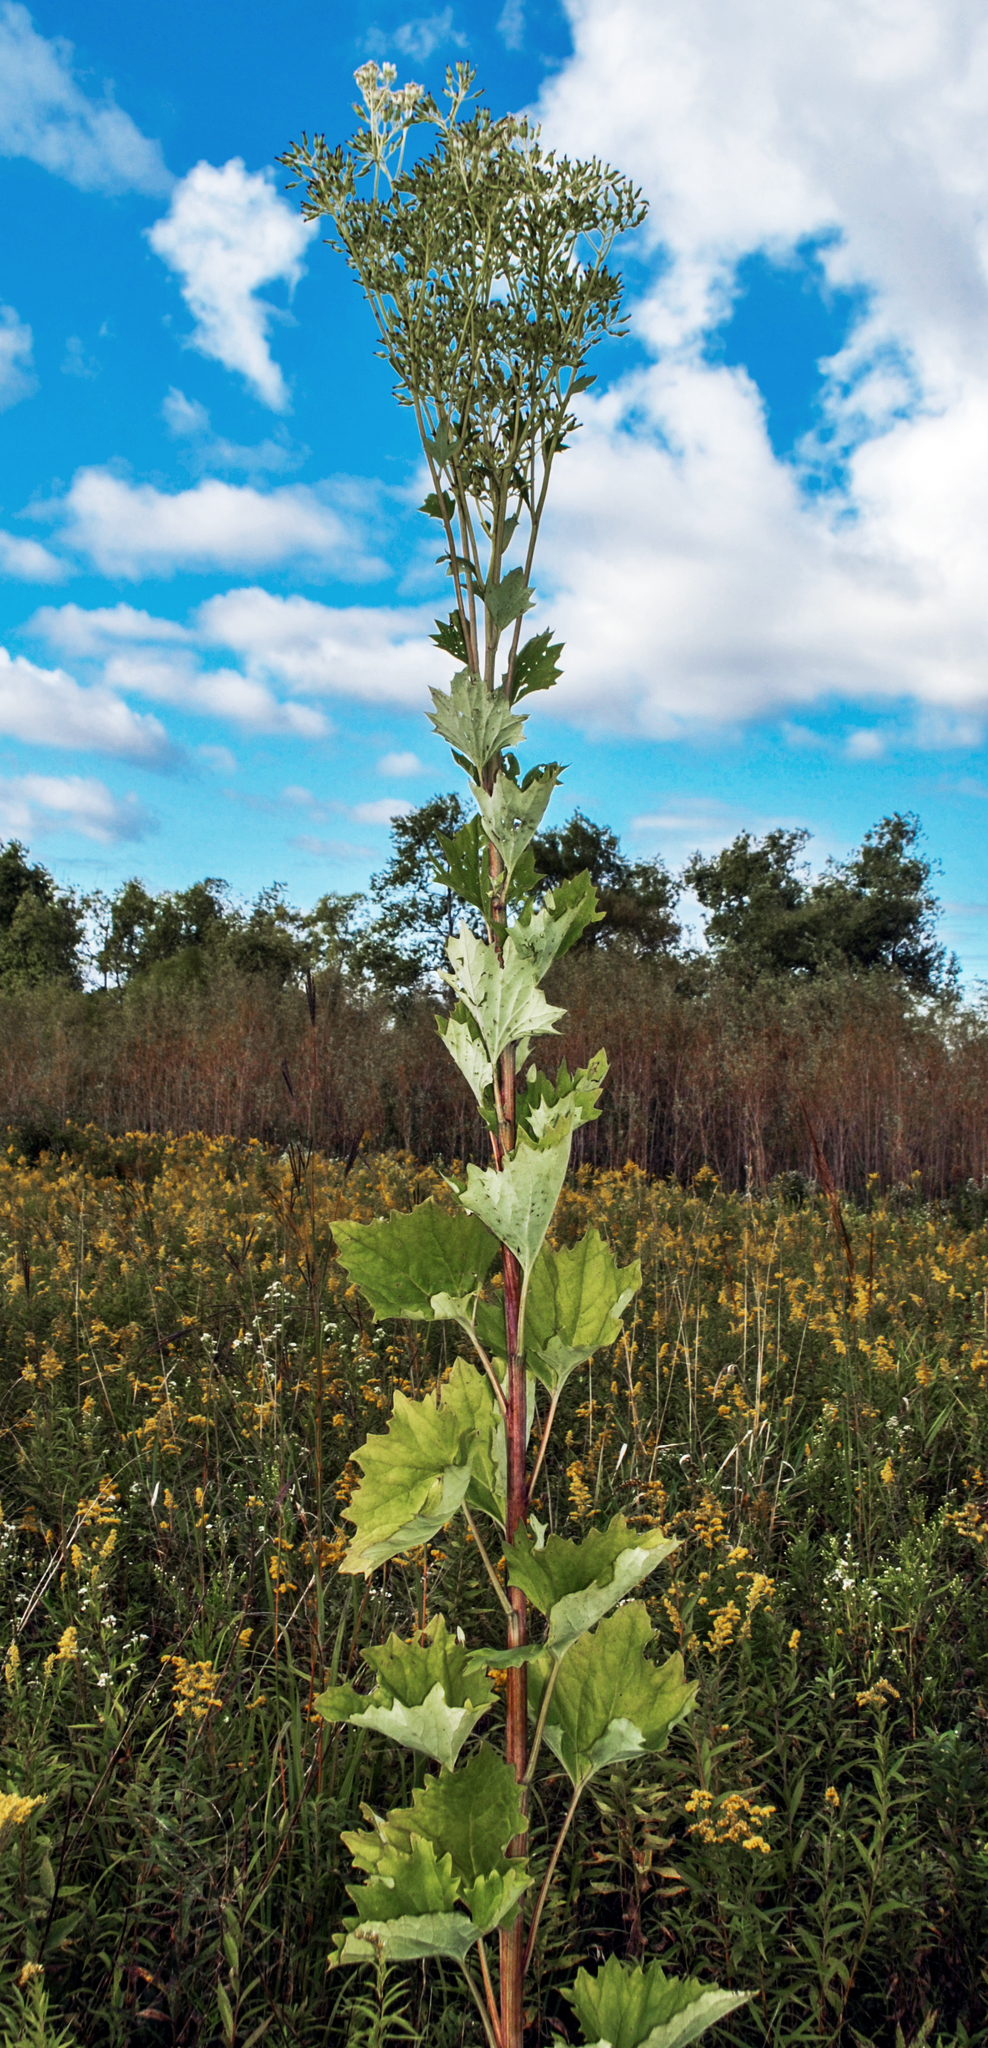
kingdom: Plantae
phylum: Tracheophyta
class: Magnoliopsida
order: Asterales
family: Asteraceae
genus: Arnoglossum
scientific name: Arnoglossum atriplicifolium
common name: Pale indian-plantain
